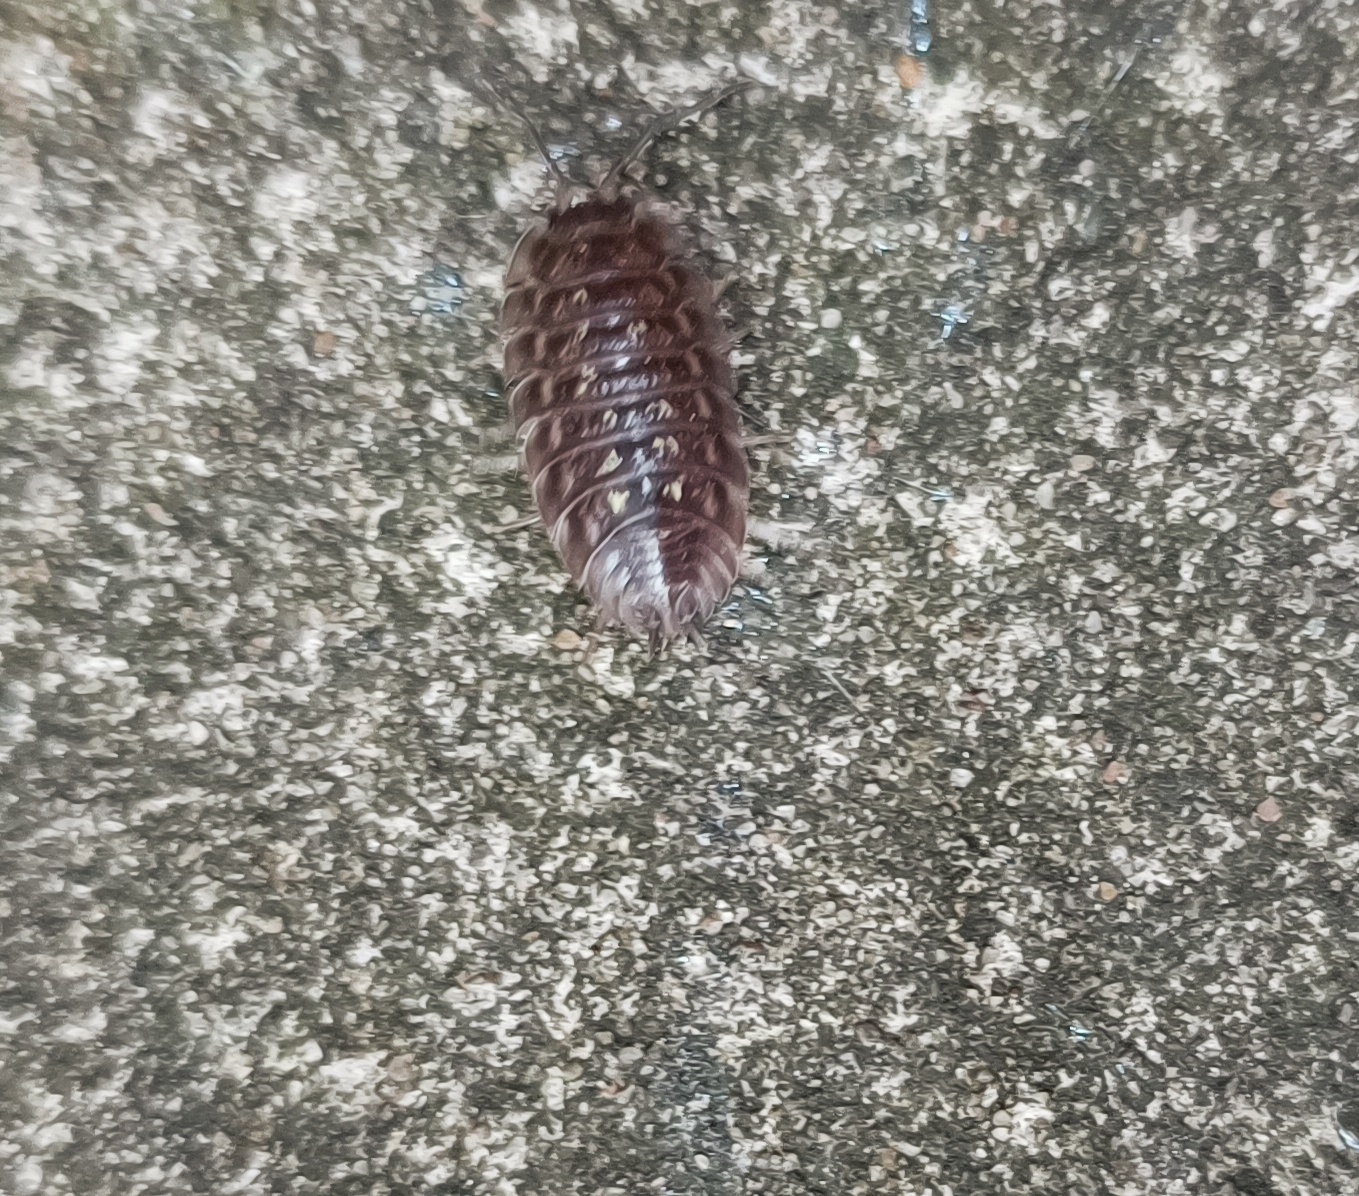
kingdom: Animalia
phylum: Arthropoda
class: Malacostraca
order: Isopoda
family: Oniscidae
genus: Oniscus
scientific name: Oniscus asellus
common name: Common shiny woodlouse
